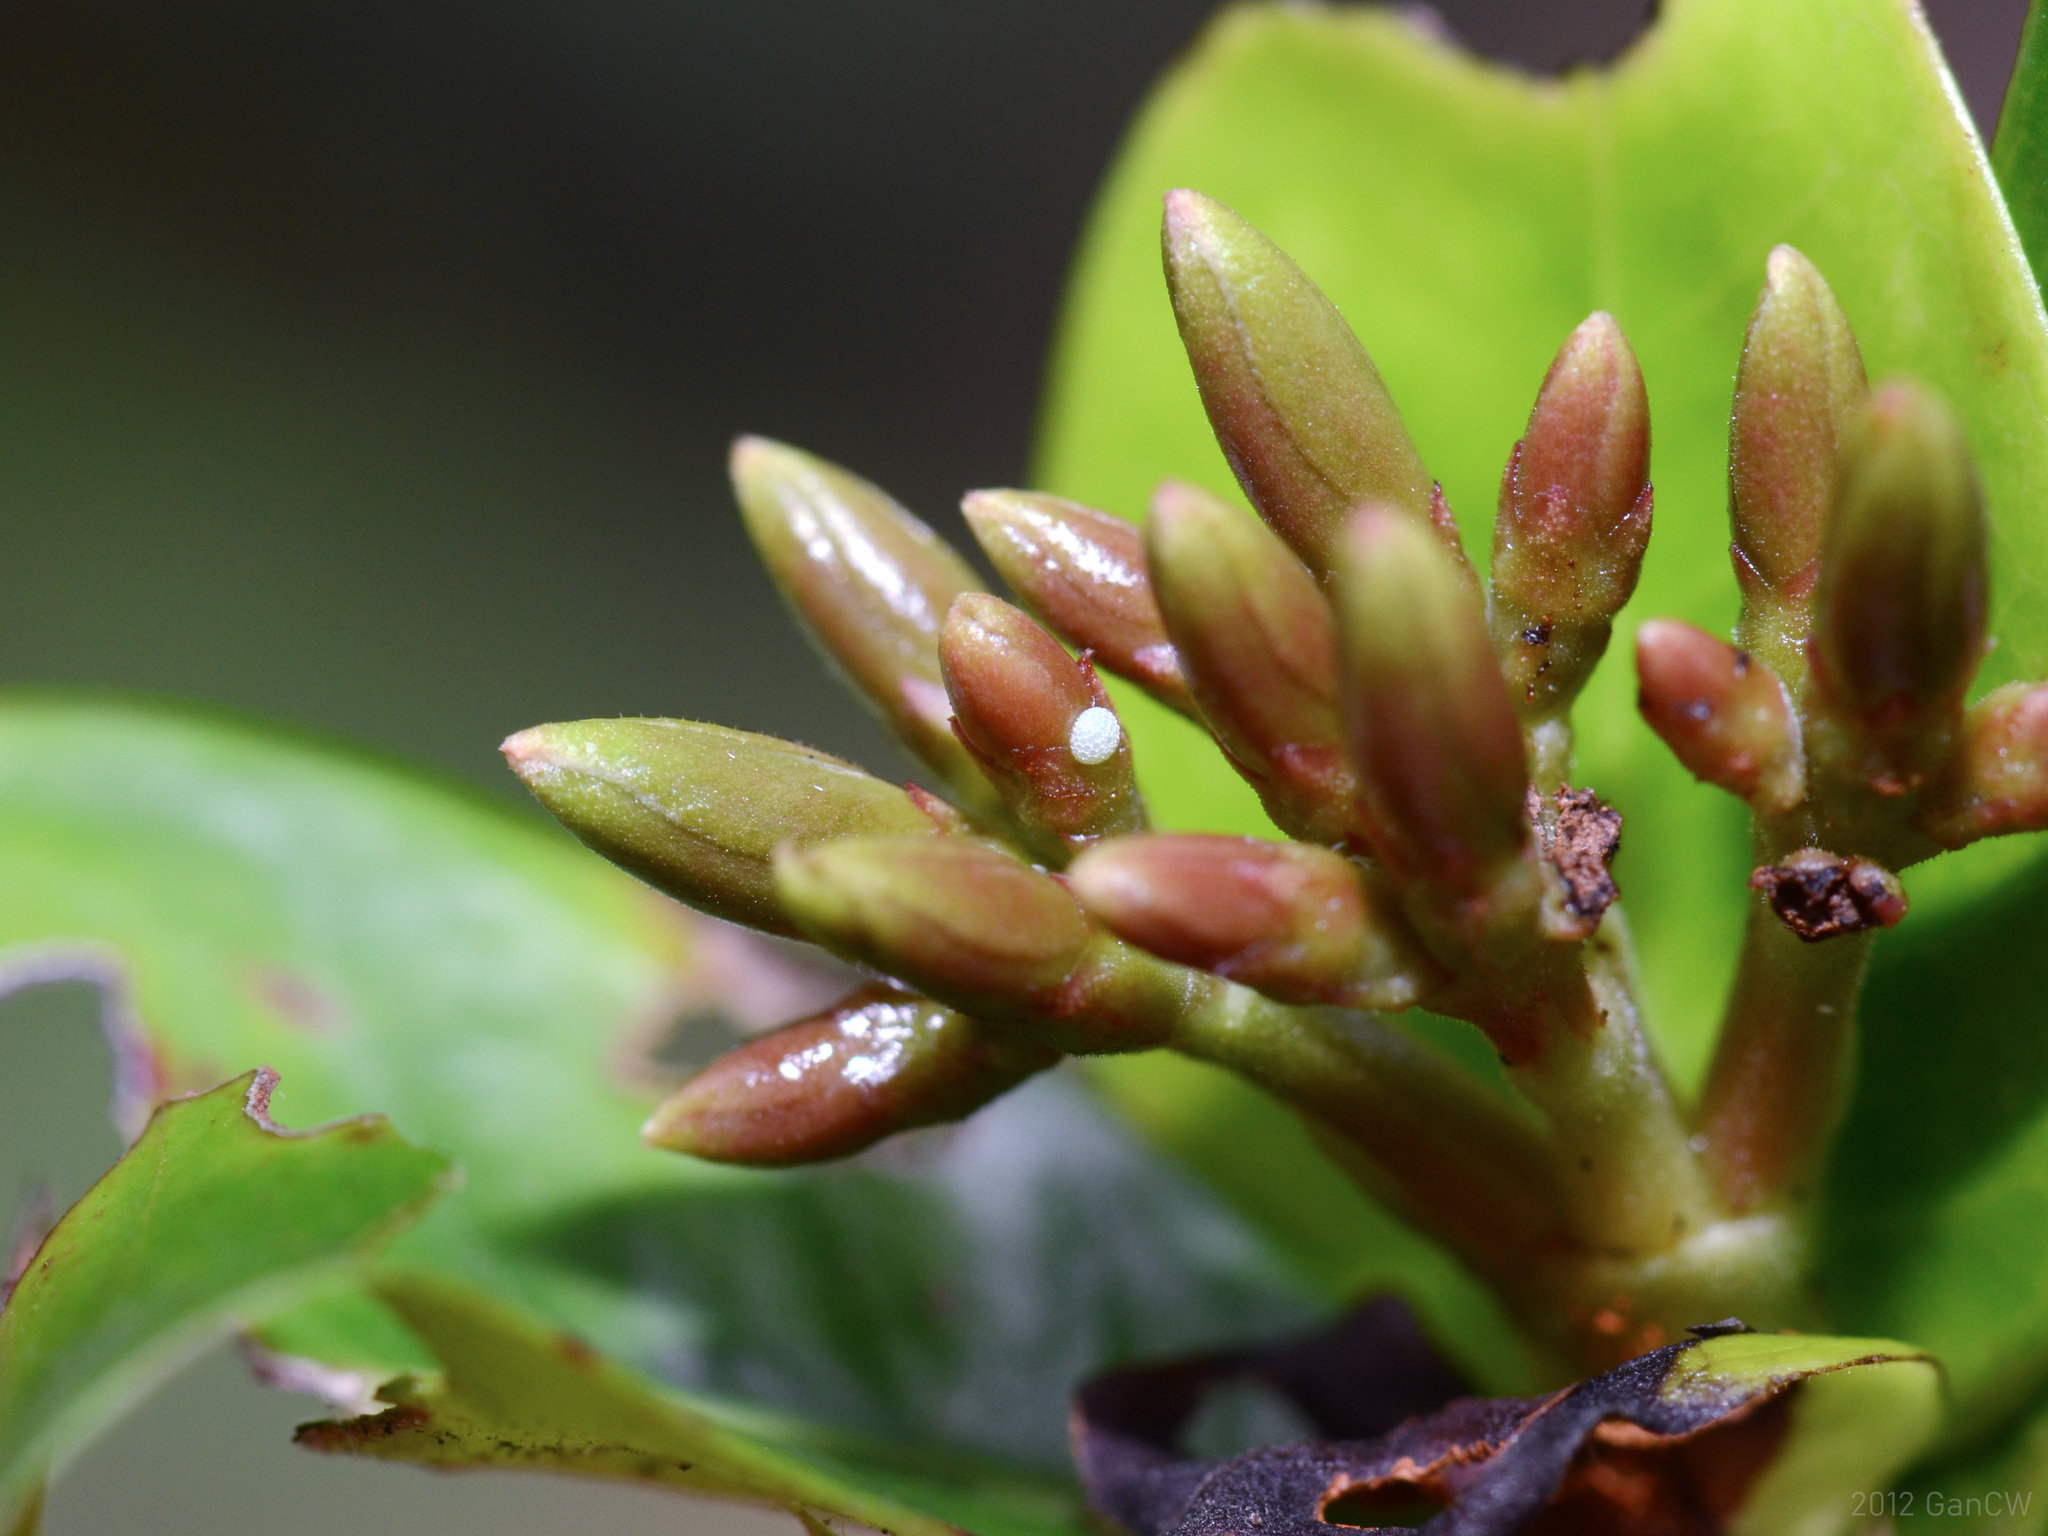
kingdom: Animalia
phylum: Arthropoda
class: Insecta
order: Lepidoptera
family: Lycaenidae
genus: Zeltus
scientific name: Zeltus amasa
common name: Fluffy tit
